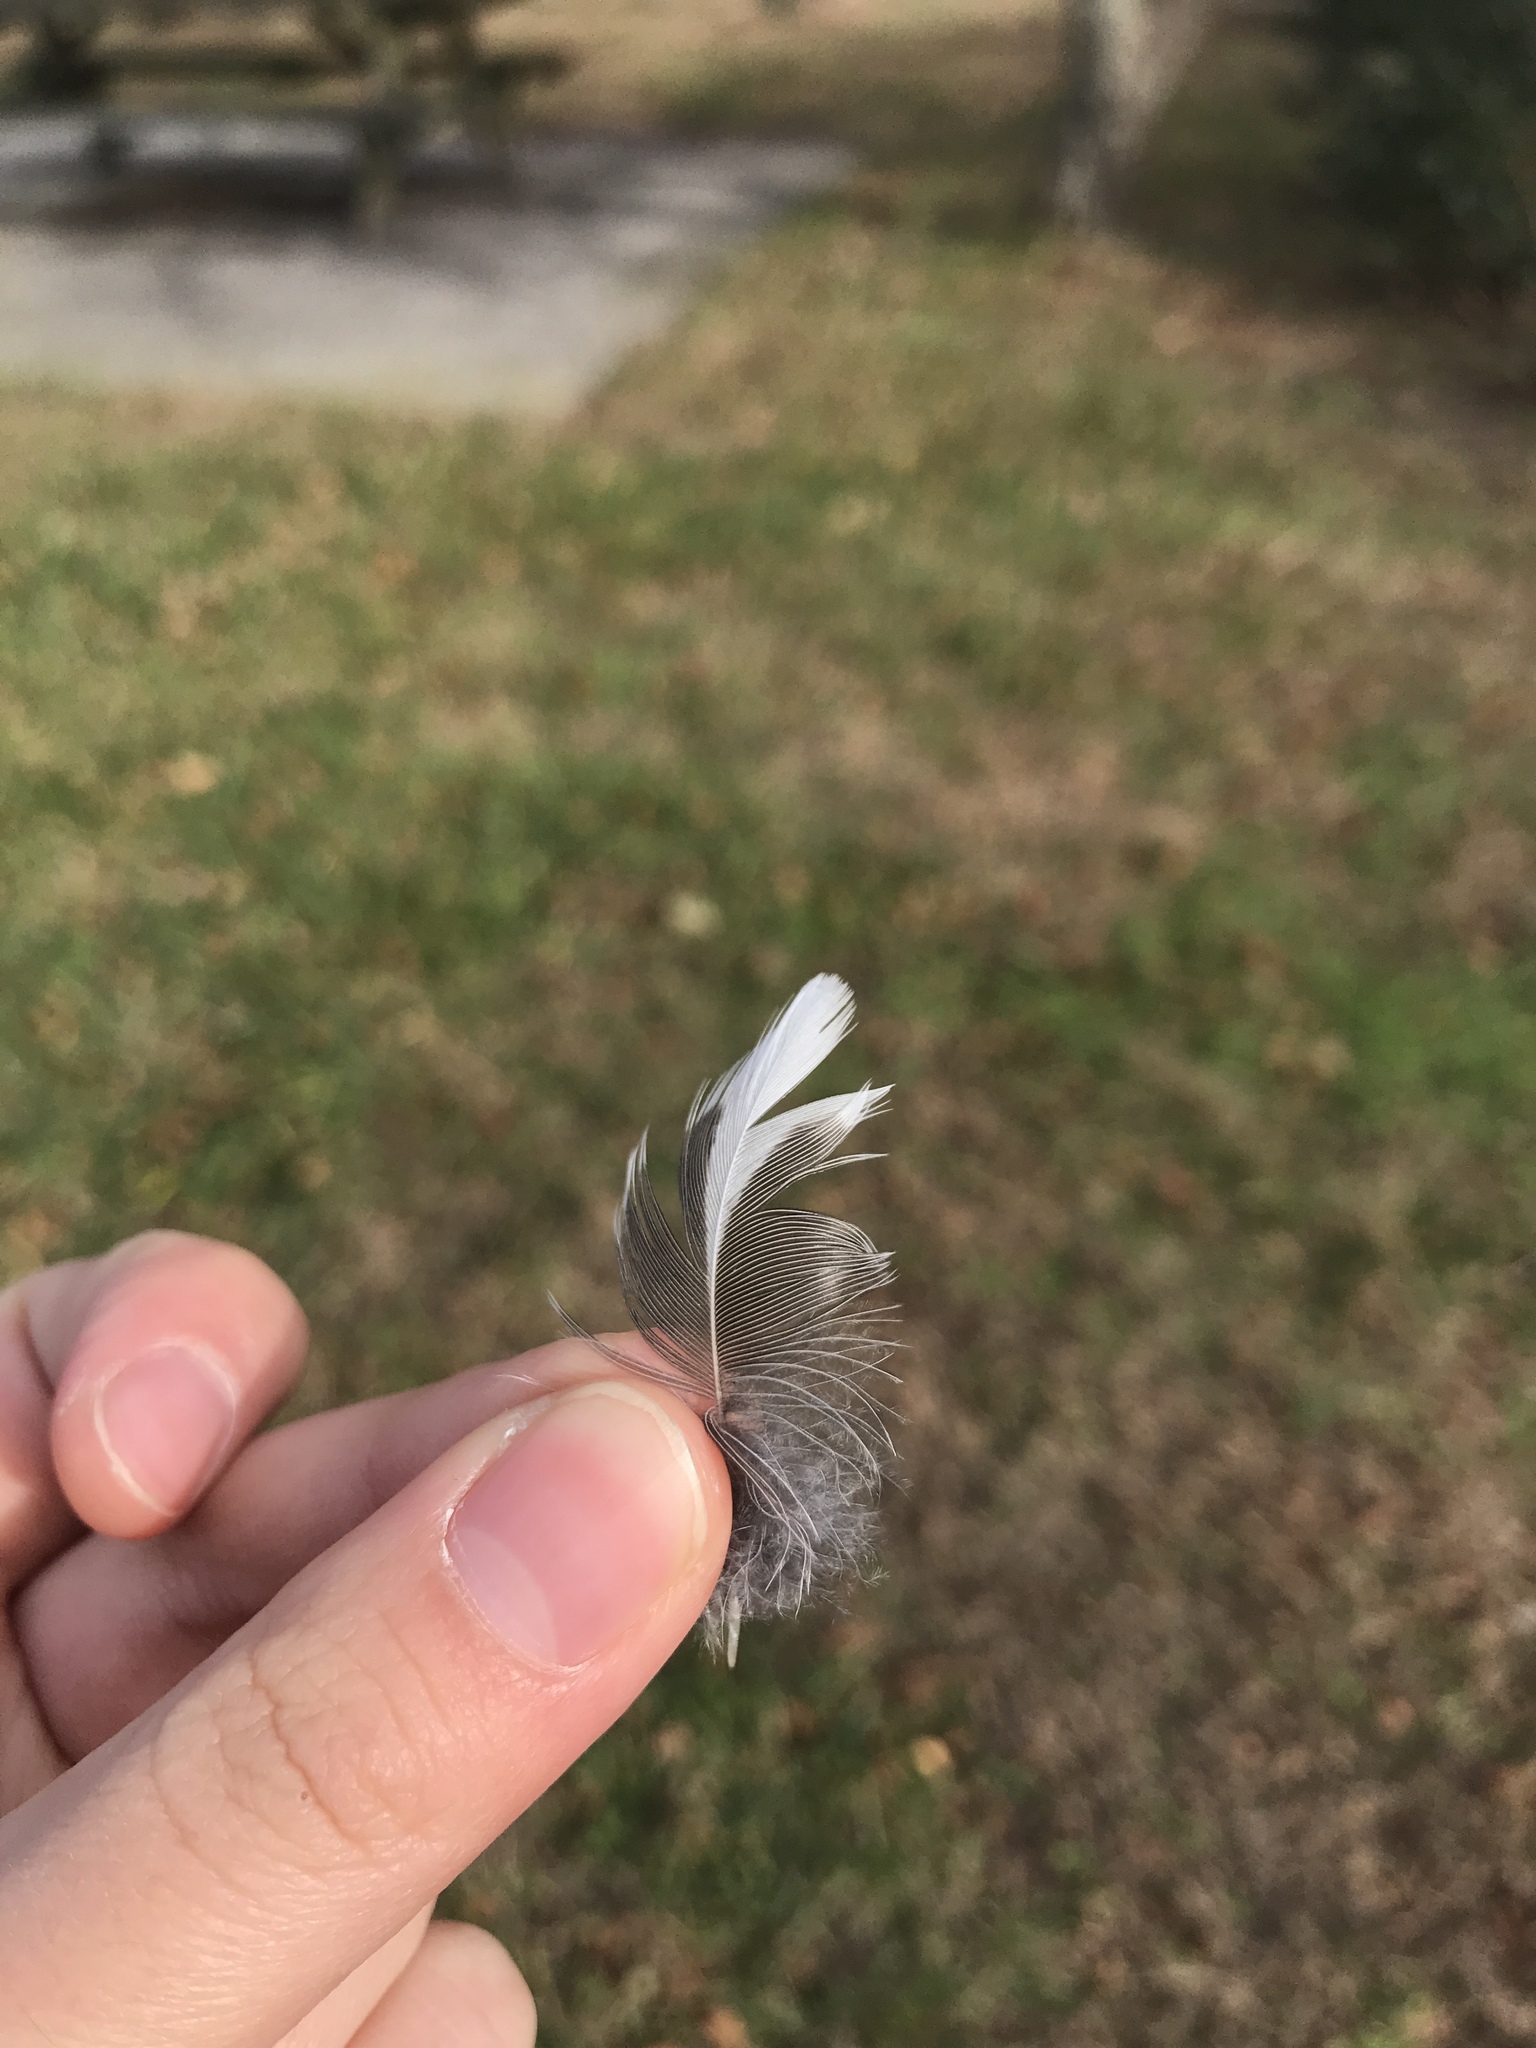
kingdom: Animalia
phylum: Chordata
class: Aves
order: Passeriformes
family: Turdidae
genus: Turdus
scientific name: Turdus migratorius
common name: American robin
